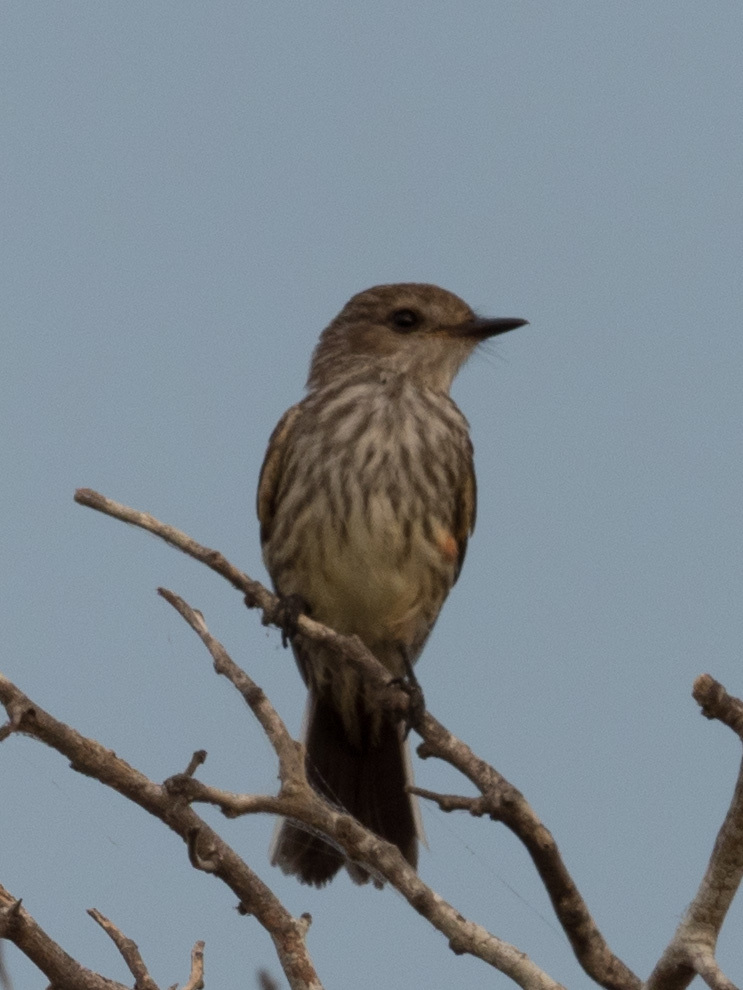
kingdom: Animalia
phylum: Chordata
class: Aves
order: Passeriformes
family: Tyrannidae
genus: Pyrocephalus
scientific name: Pyrocephalus rubinus
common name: Vermilion flycatcher
